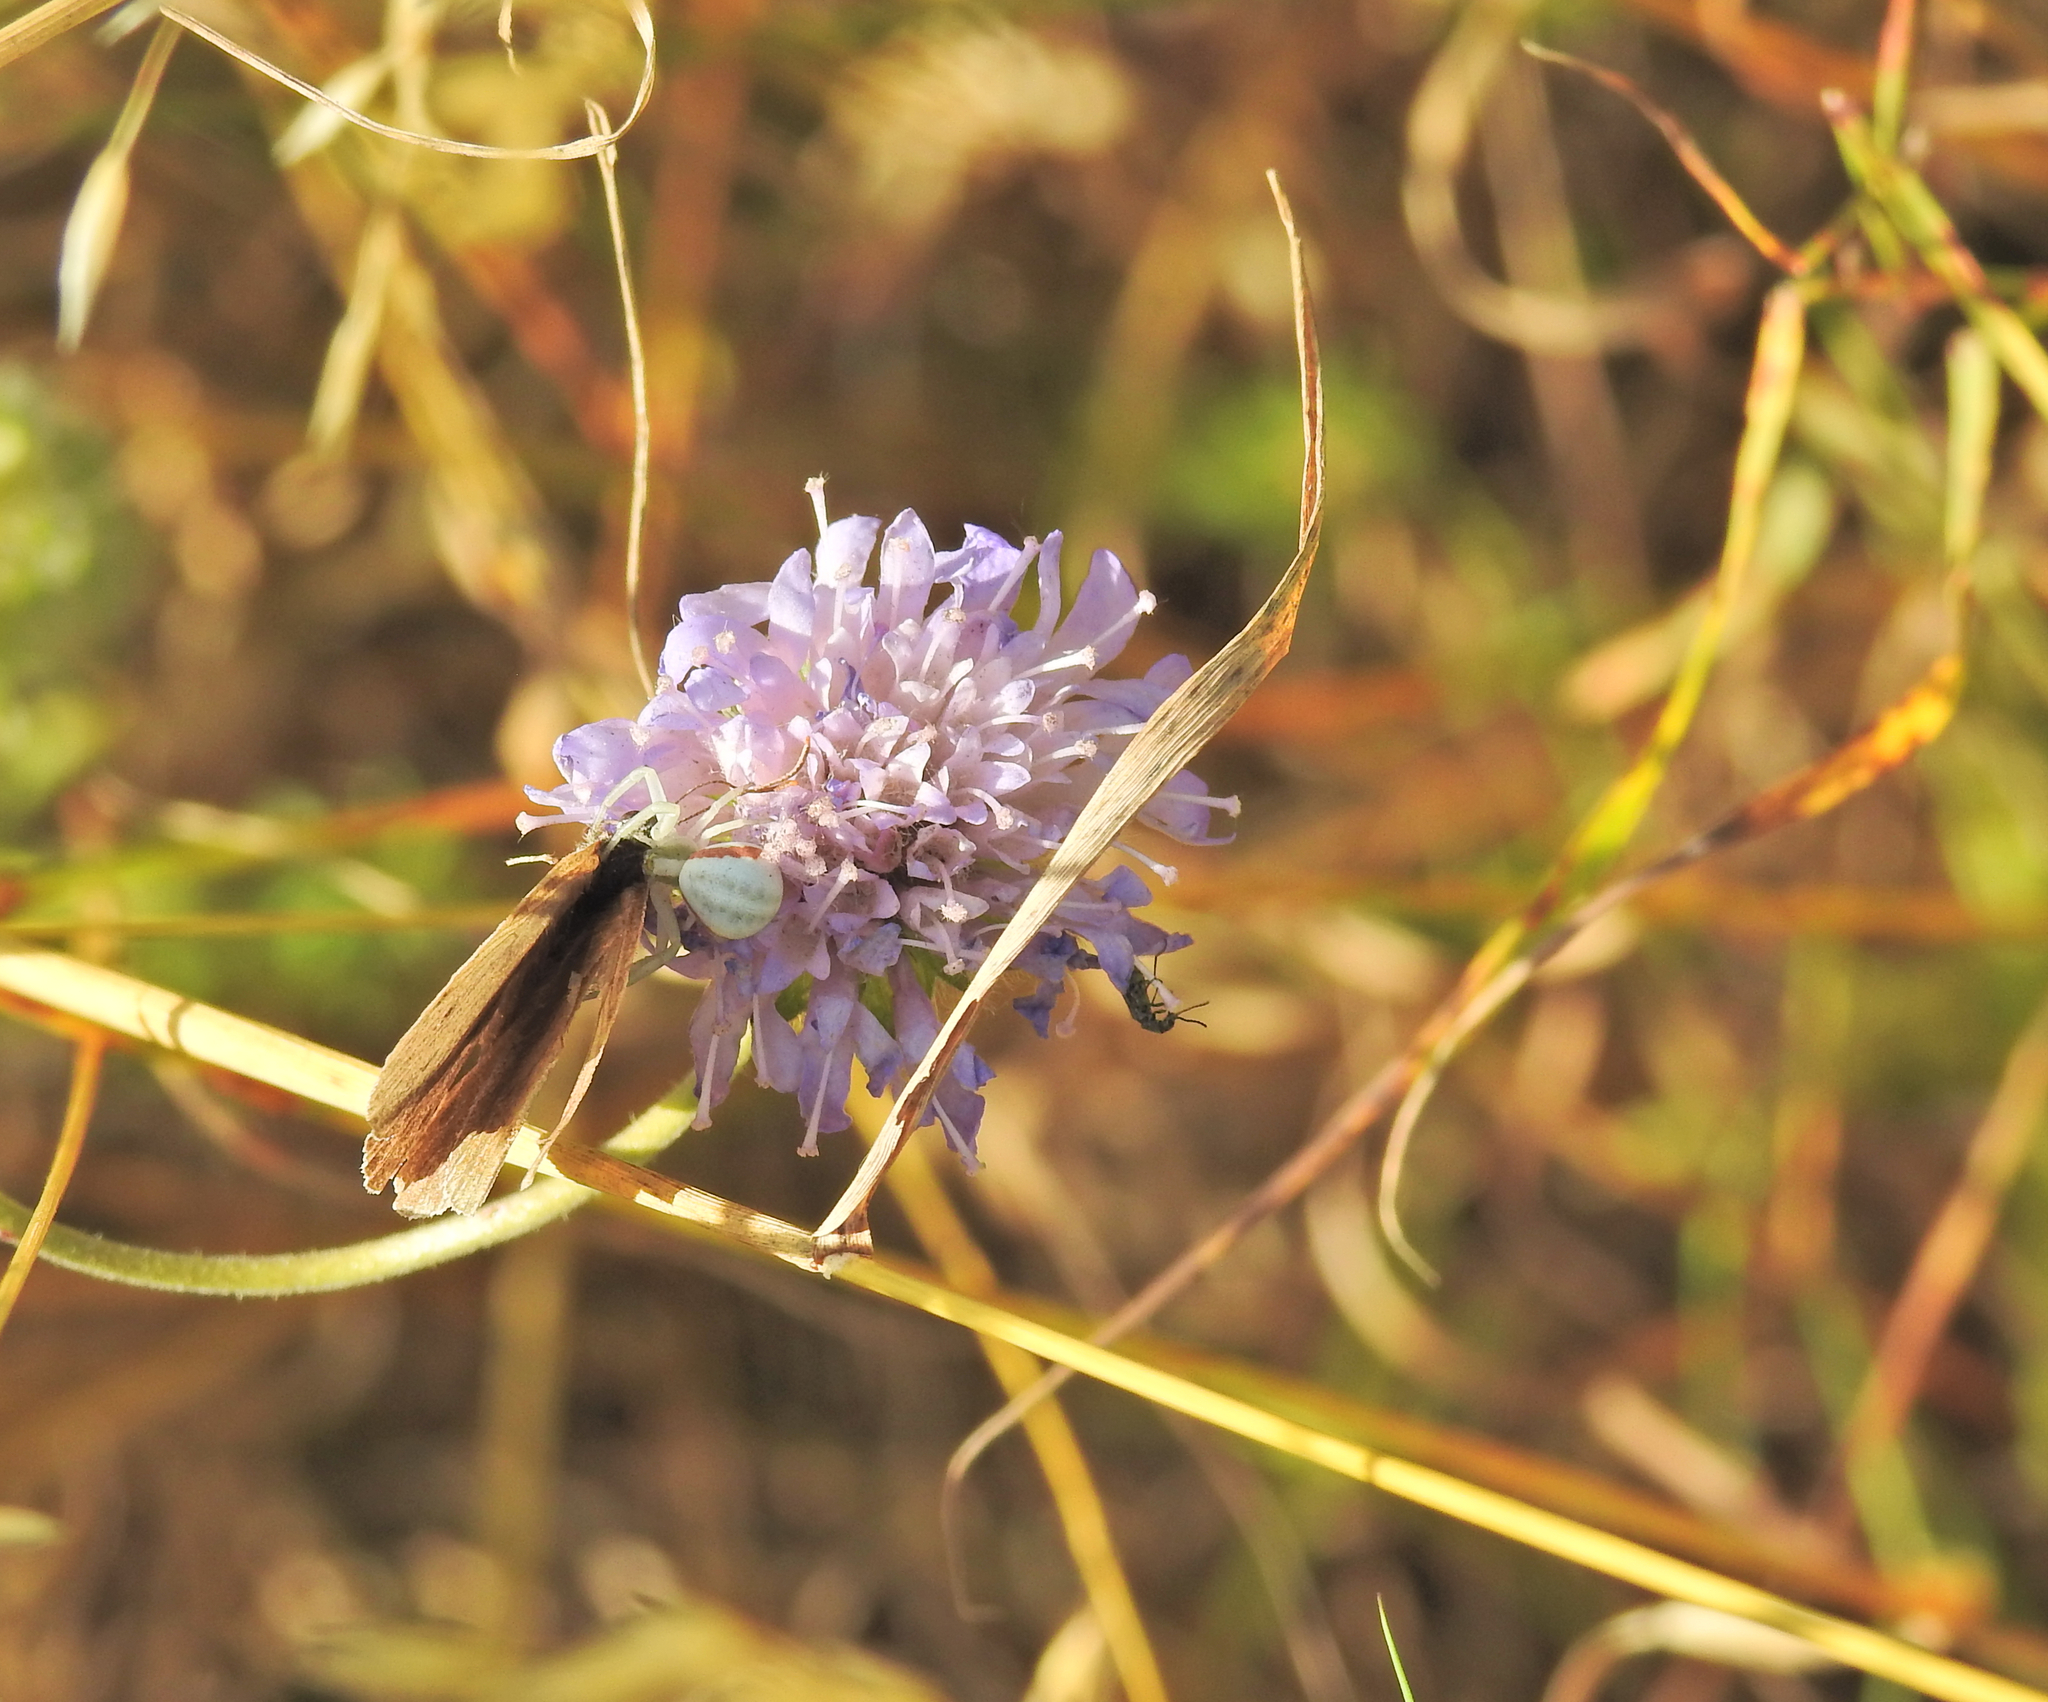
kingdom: Animalia
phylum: Arthropoda
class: Arachnida
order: Araneae
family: Thomisidae
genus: Misumena
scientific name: Misumena vatia
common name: Goldenrod crab spider
